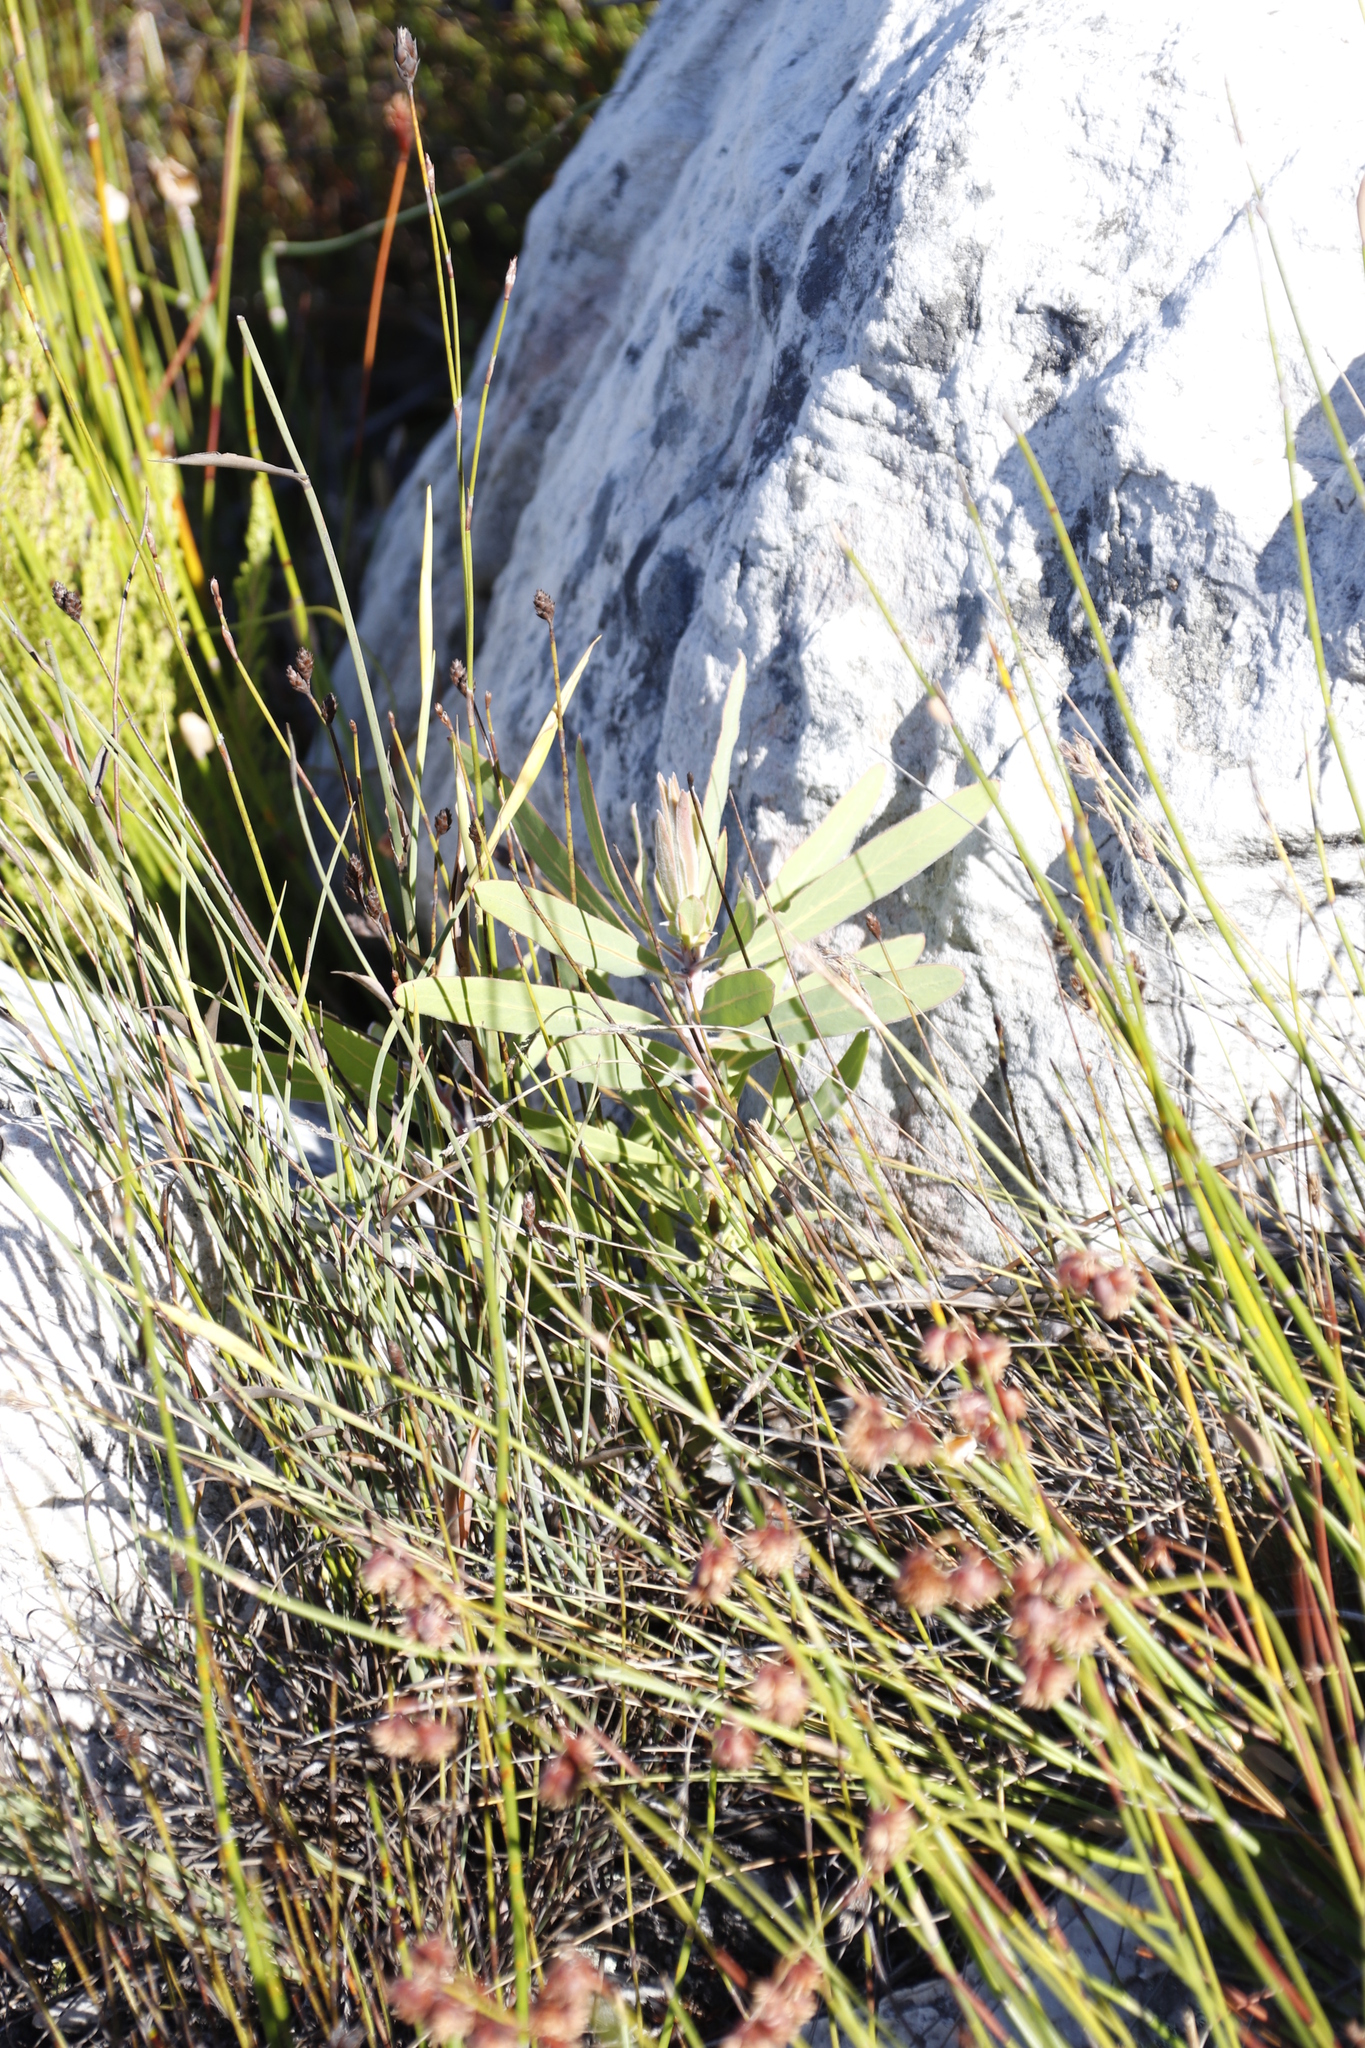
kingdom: Plantae
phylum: Tracheophyta
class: Magnoliopsida
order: Proteales
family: Proteaceae
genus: Protea
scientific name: Protea laurifolia
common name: Grey-leaf sugarbsh
